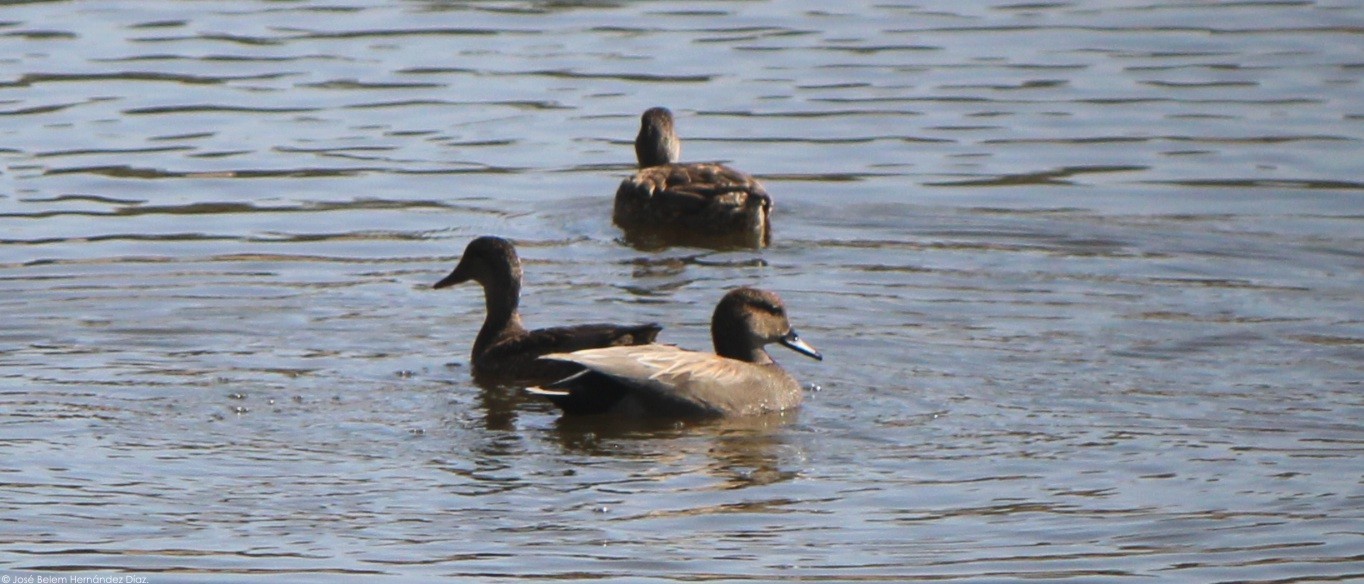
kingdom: Animalia
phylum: Chordata
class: Aves
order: Anseriformes
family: Anatidae
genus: Mareca
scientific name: Mareca strepera
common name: Gadwall
